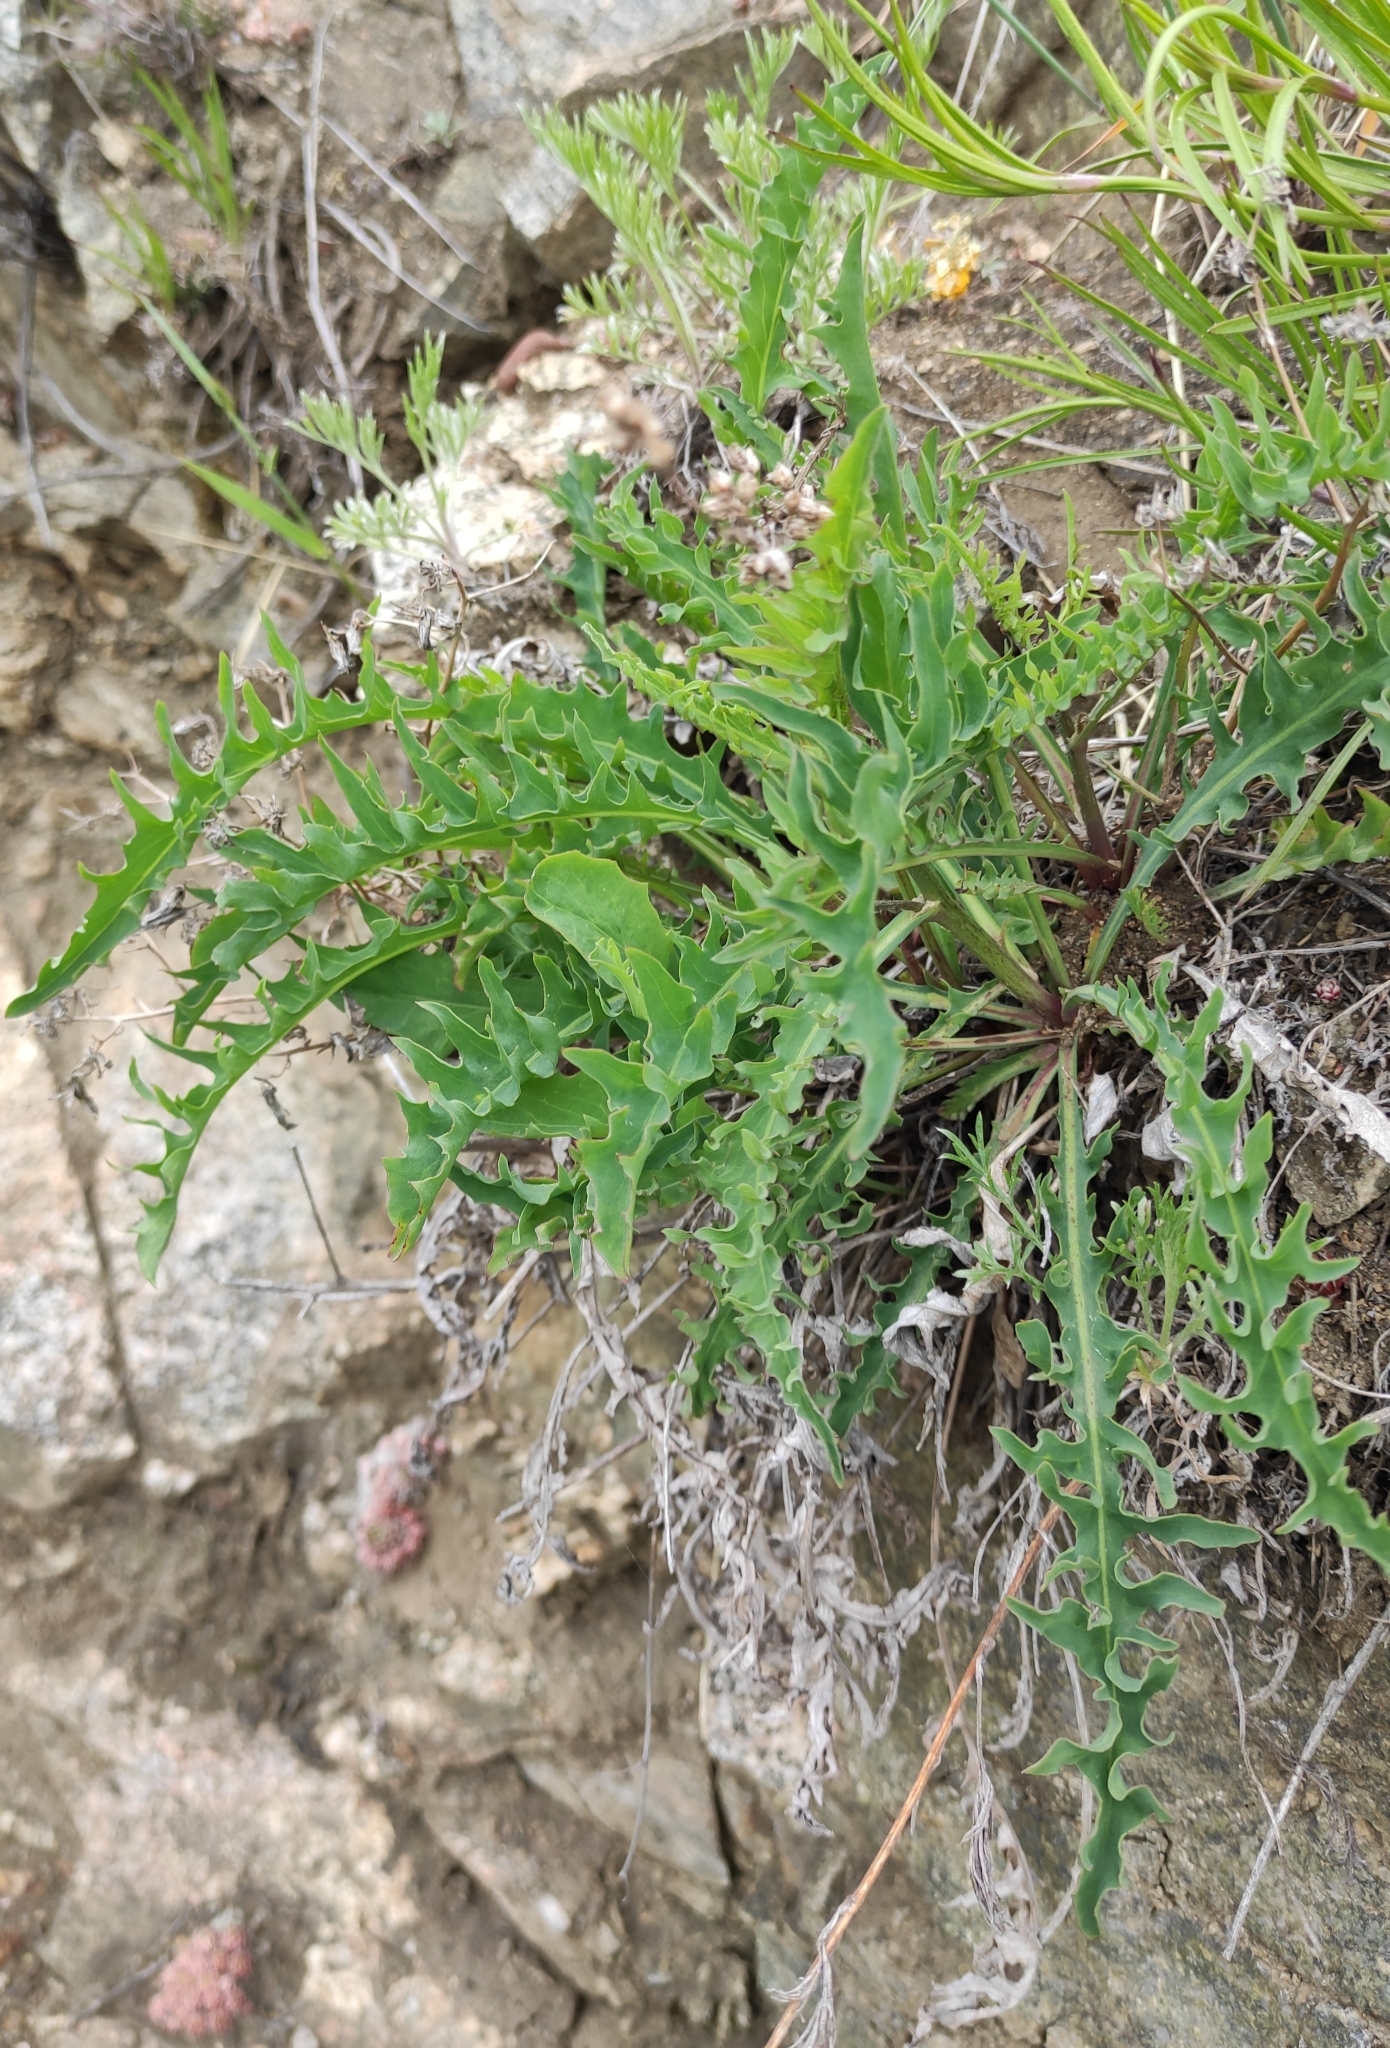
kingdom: Plantae
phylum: Tracheophyta
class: Magnoliopsida
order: Asterales
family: Asteraceae
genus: Crepidiastrum
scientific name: Crepidiastrum tenuifolium
